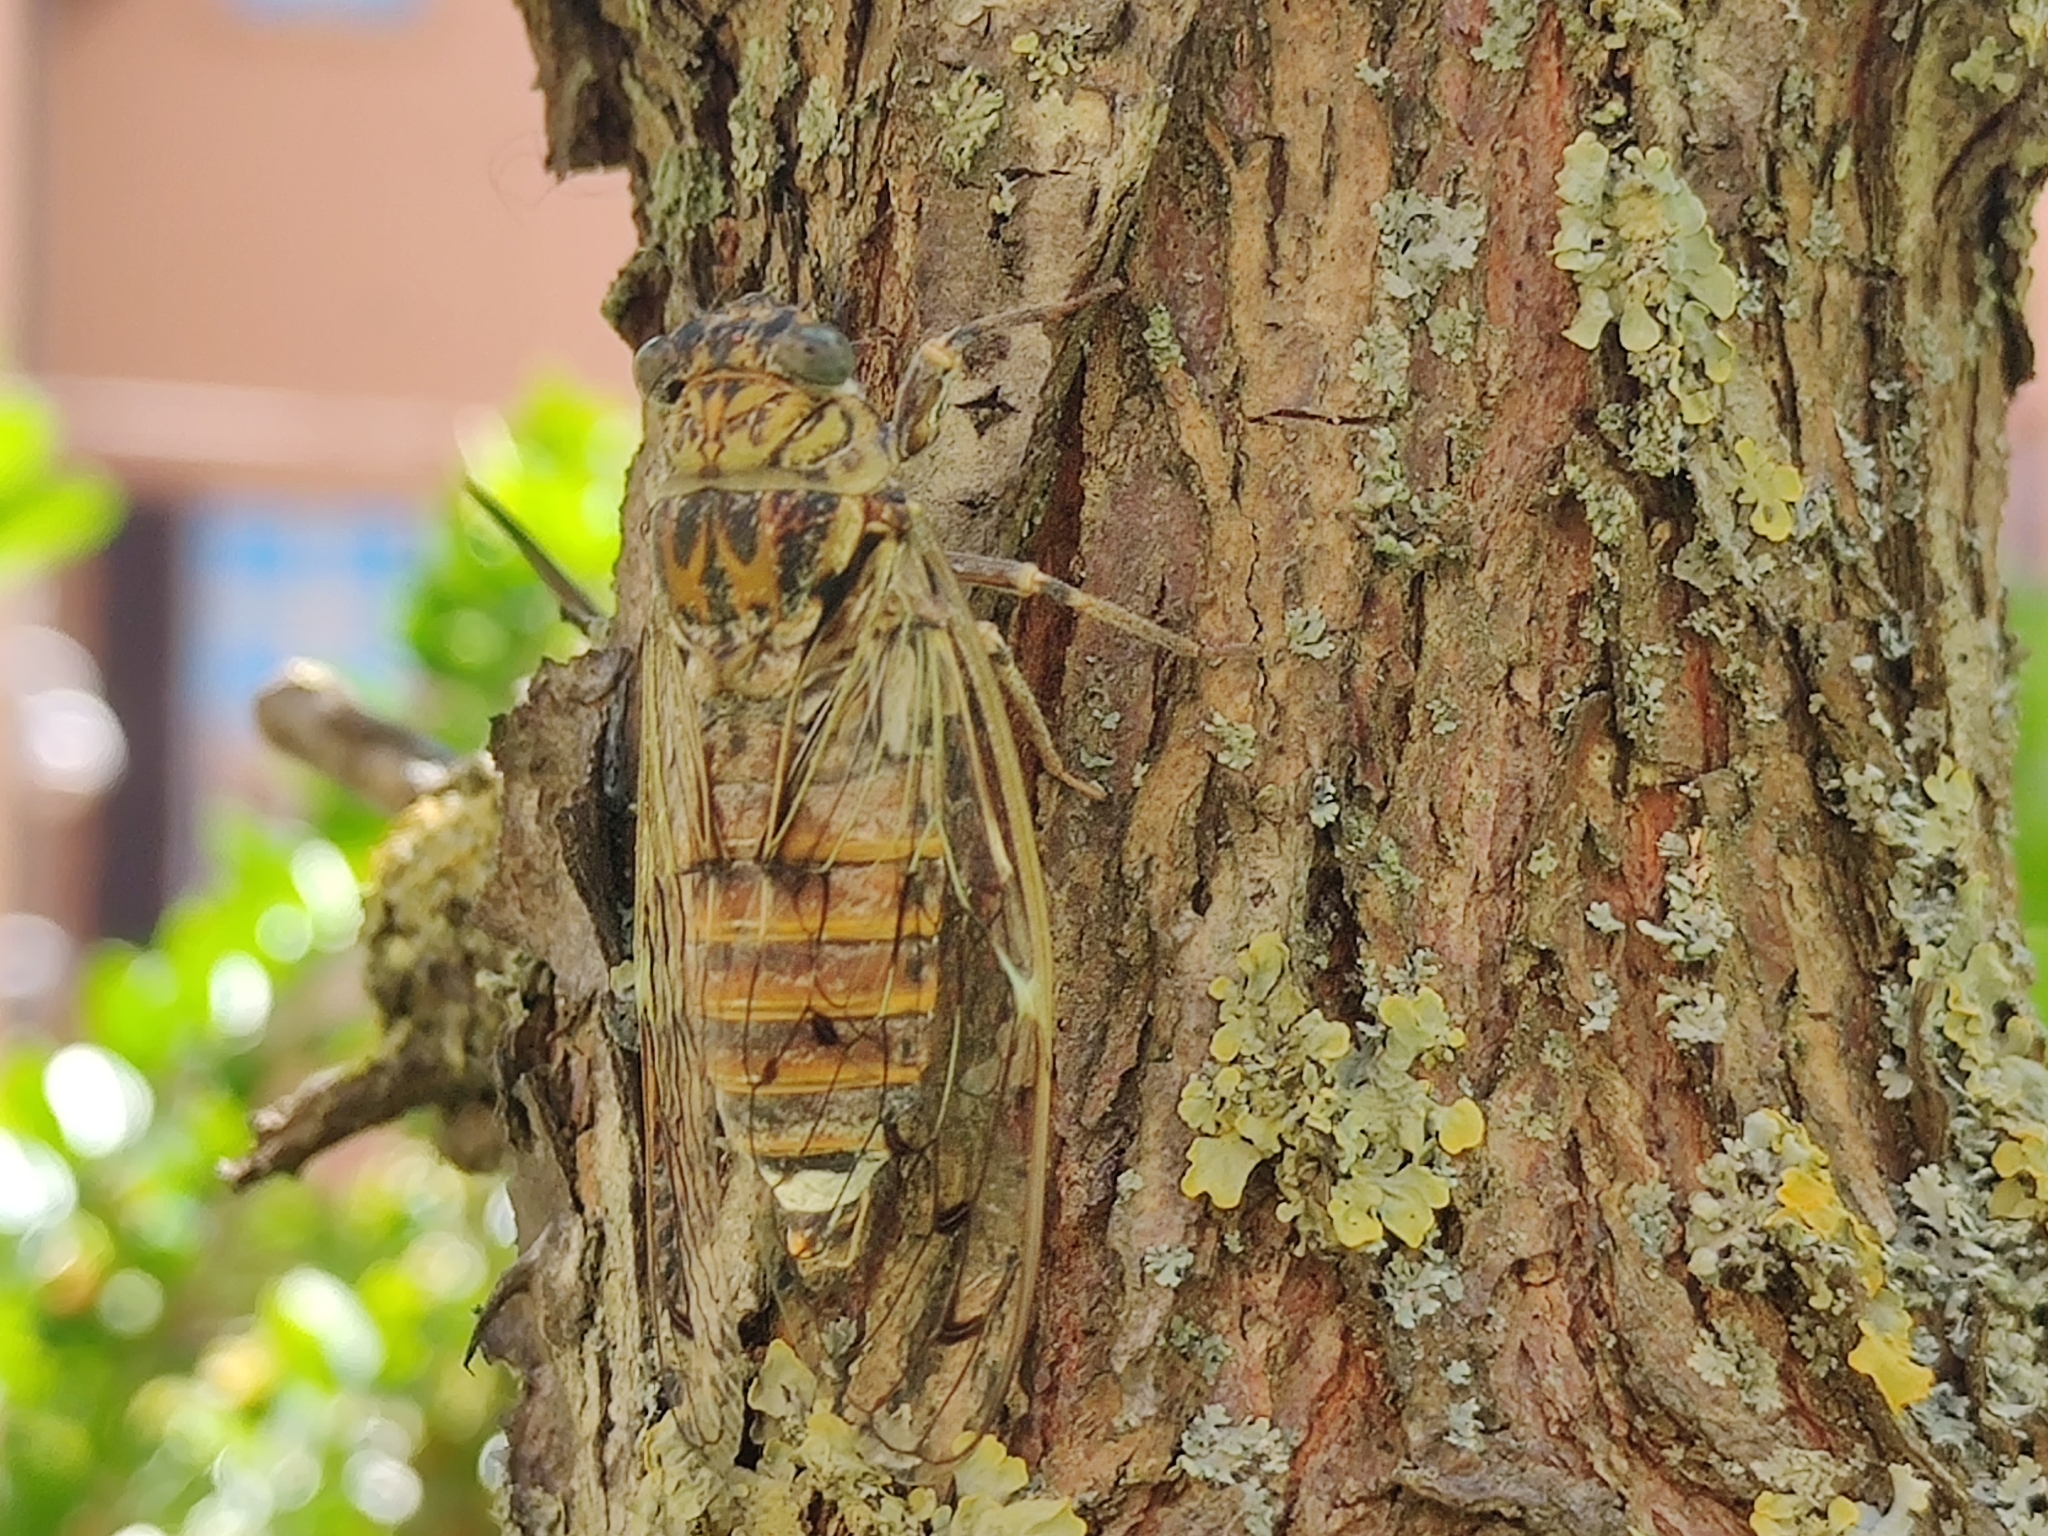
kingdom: Animalia
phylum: Arthropoda
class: Insecta
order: Hemiptera
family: Cicadidae
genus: Cicada
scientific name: Cicada orni
